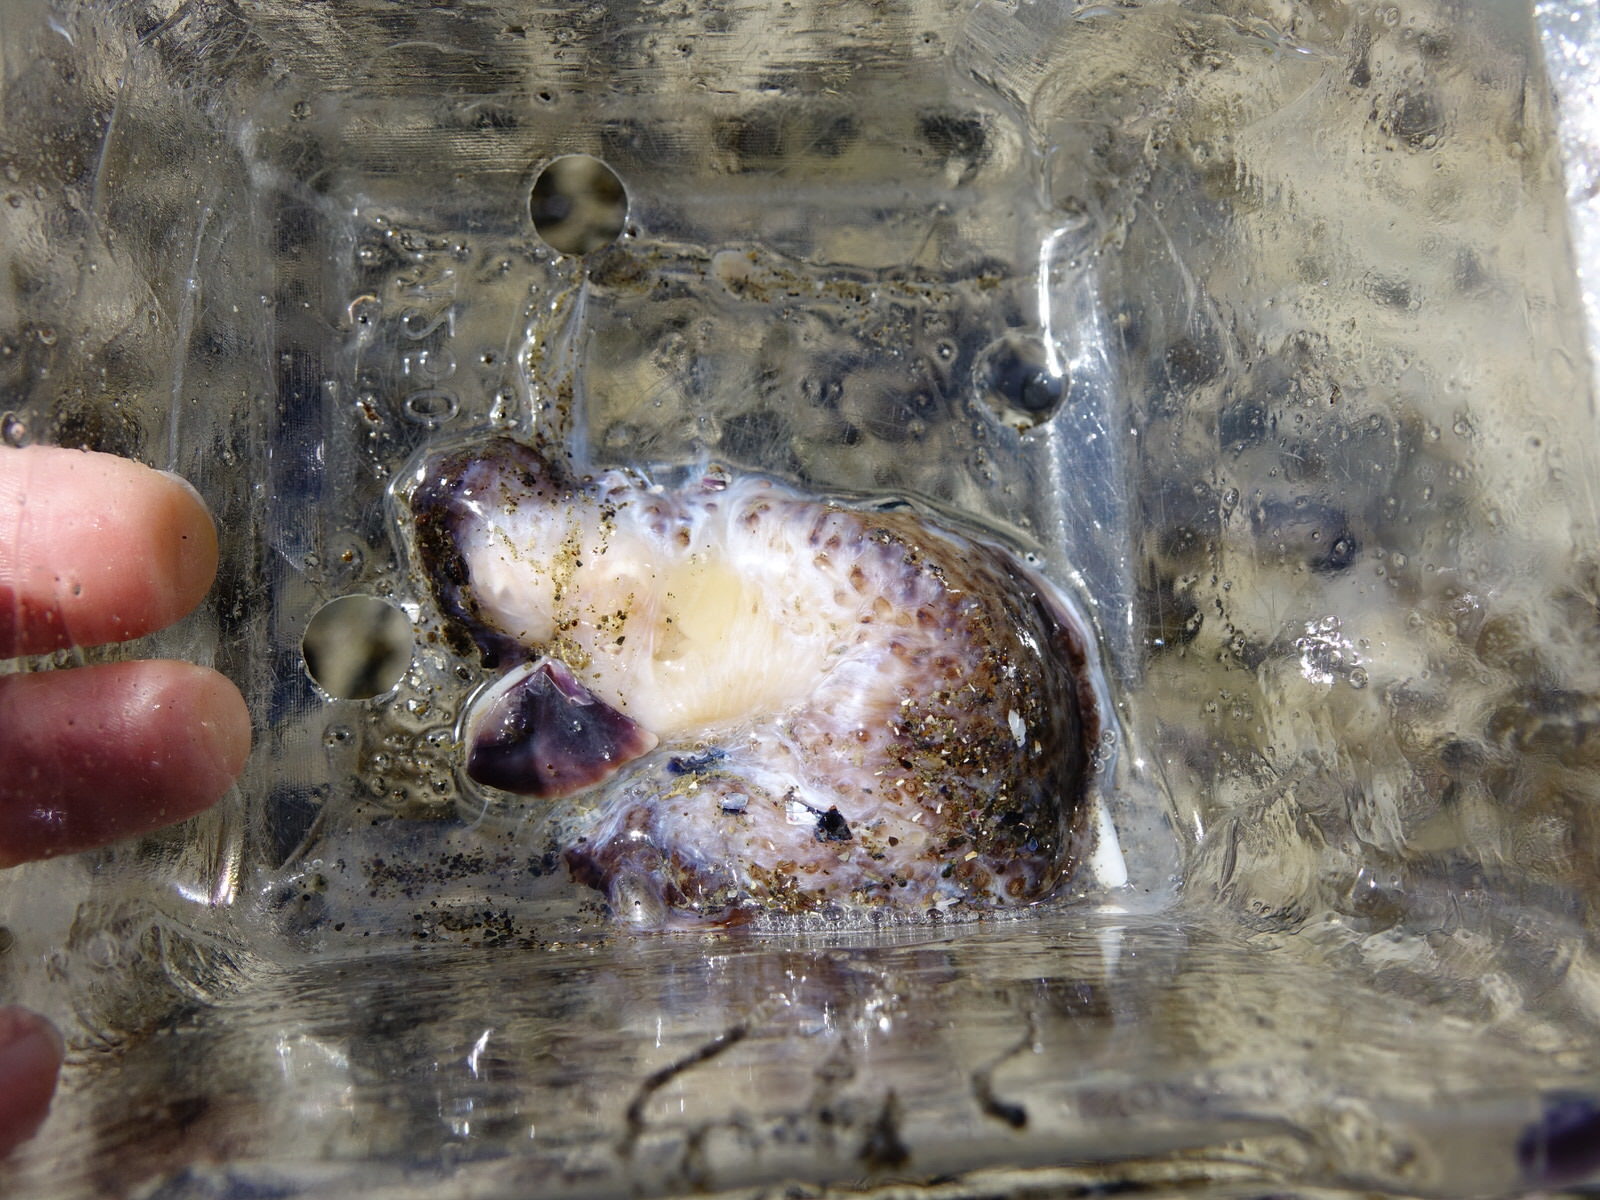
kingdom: Animalia
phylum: Echinodermata
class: Holothuroidea
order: Synallactida
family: Stichopodidae
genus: Australostichopus
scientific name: Australostichopus mollis
